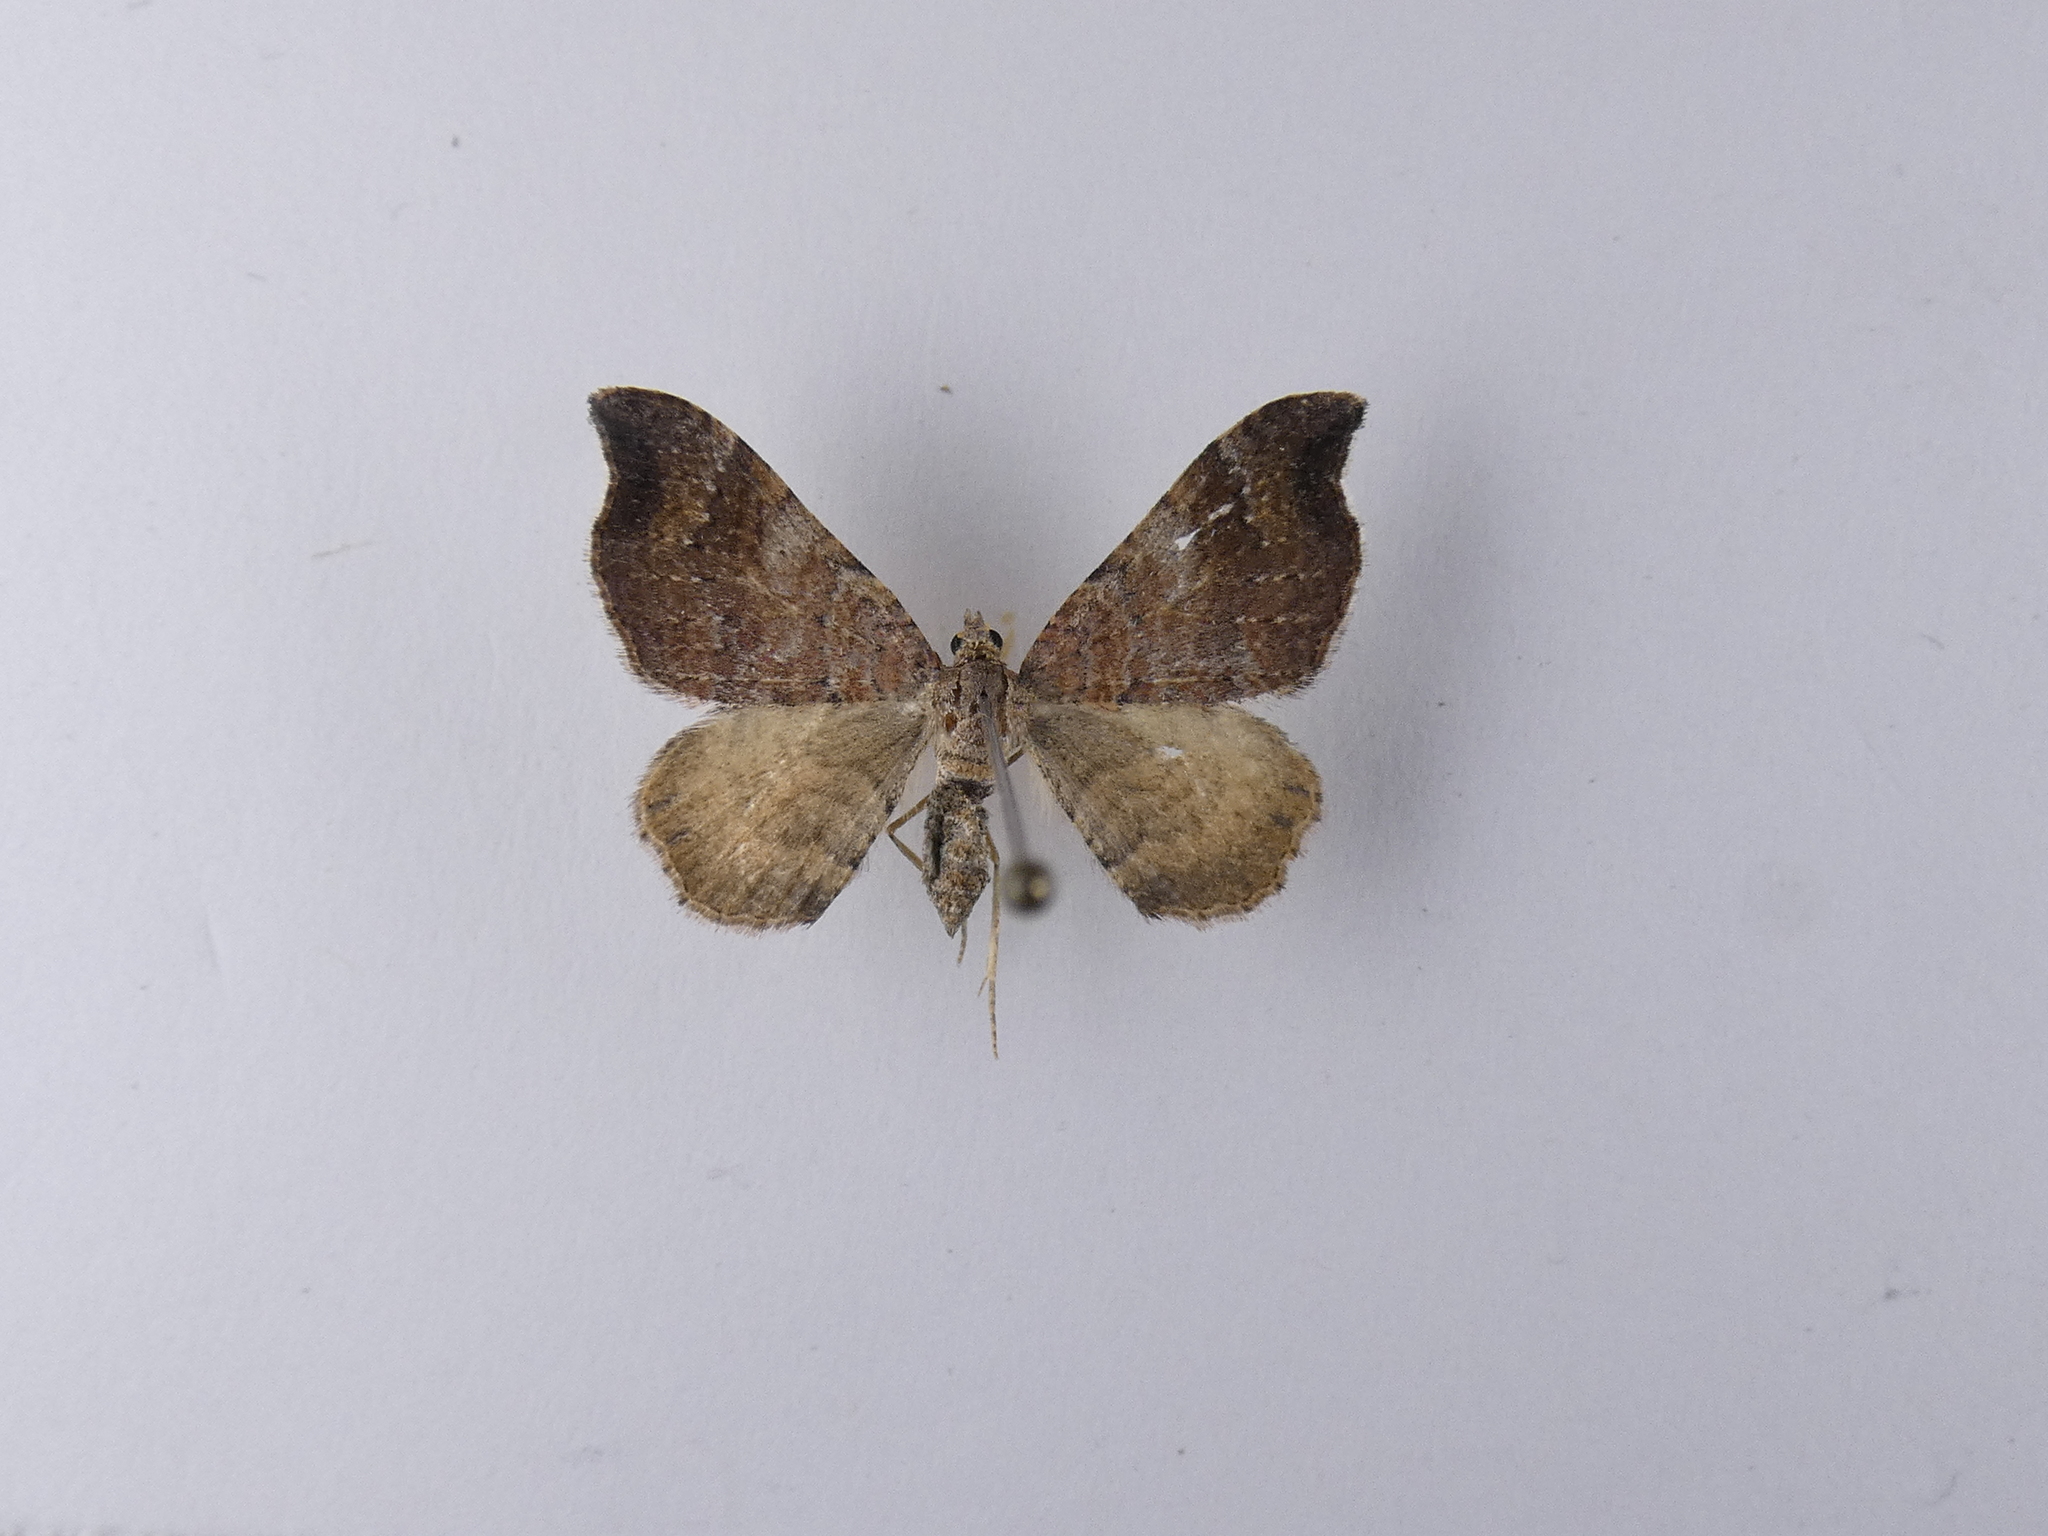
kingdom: Animalia
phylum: Arthropoda
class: Insecta
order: Lepidoptera
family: Geometridae
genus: Homodotis
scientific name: Homodotis megaspilata
